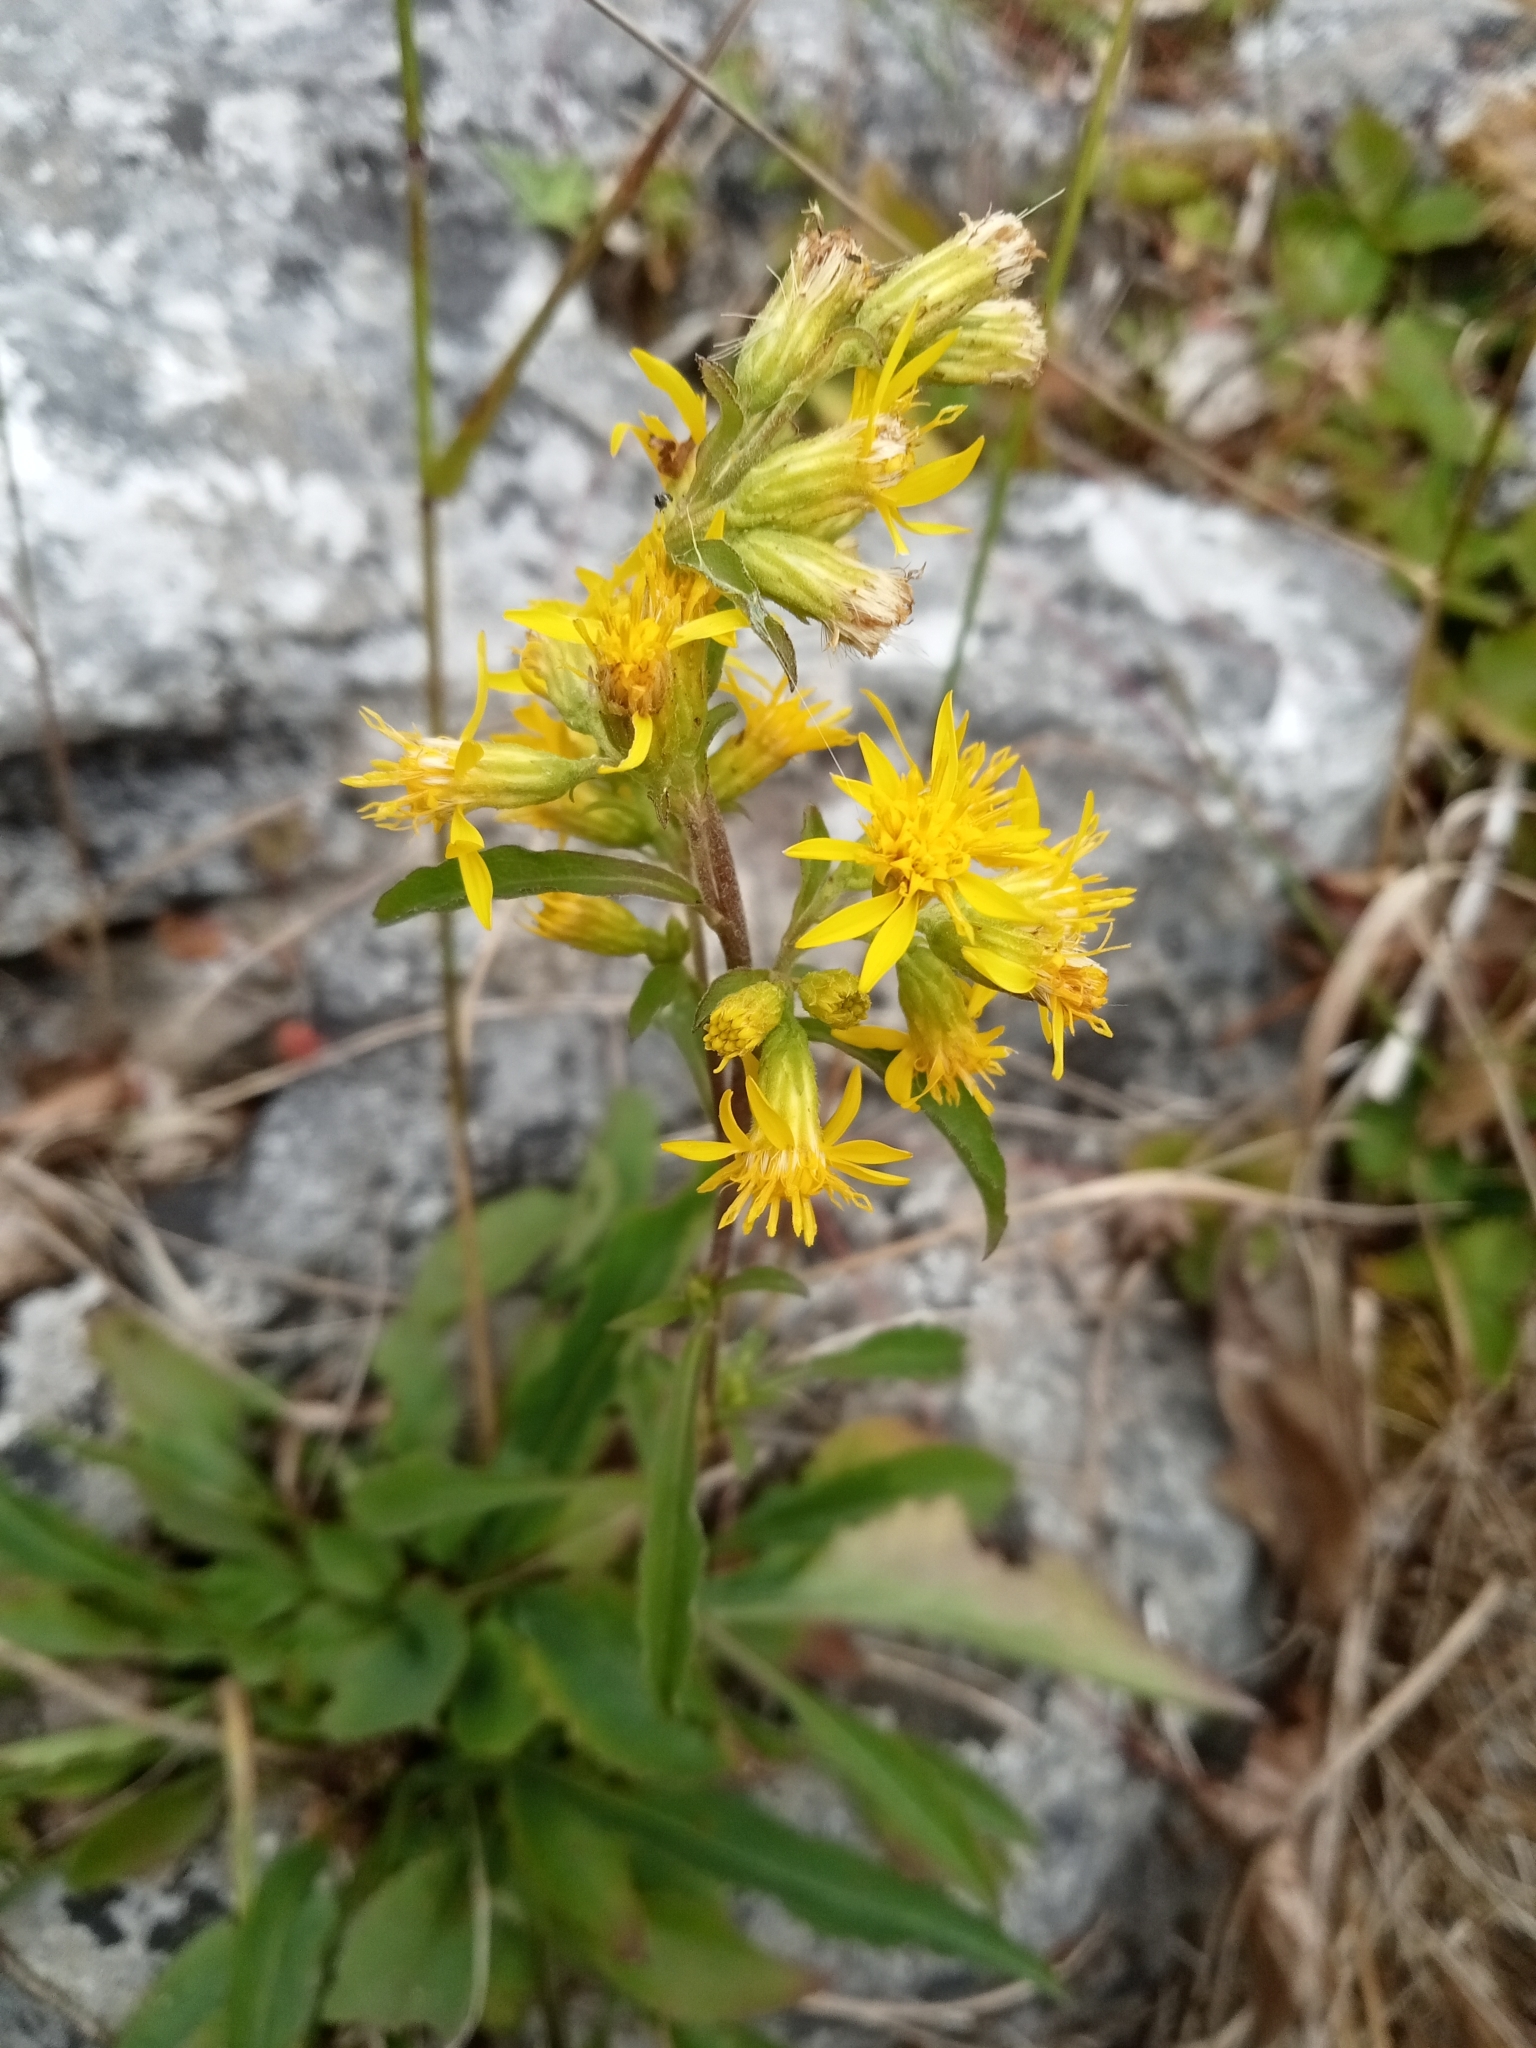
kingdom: Plantae
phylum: Tracheophyta
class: Magnoliopsida
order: Asterales
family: Asteraceae
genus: Solidago
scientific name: Solidago virgaurea
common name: Goldenrod
